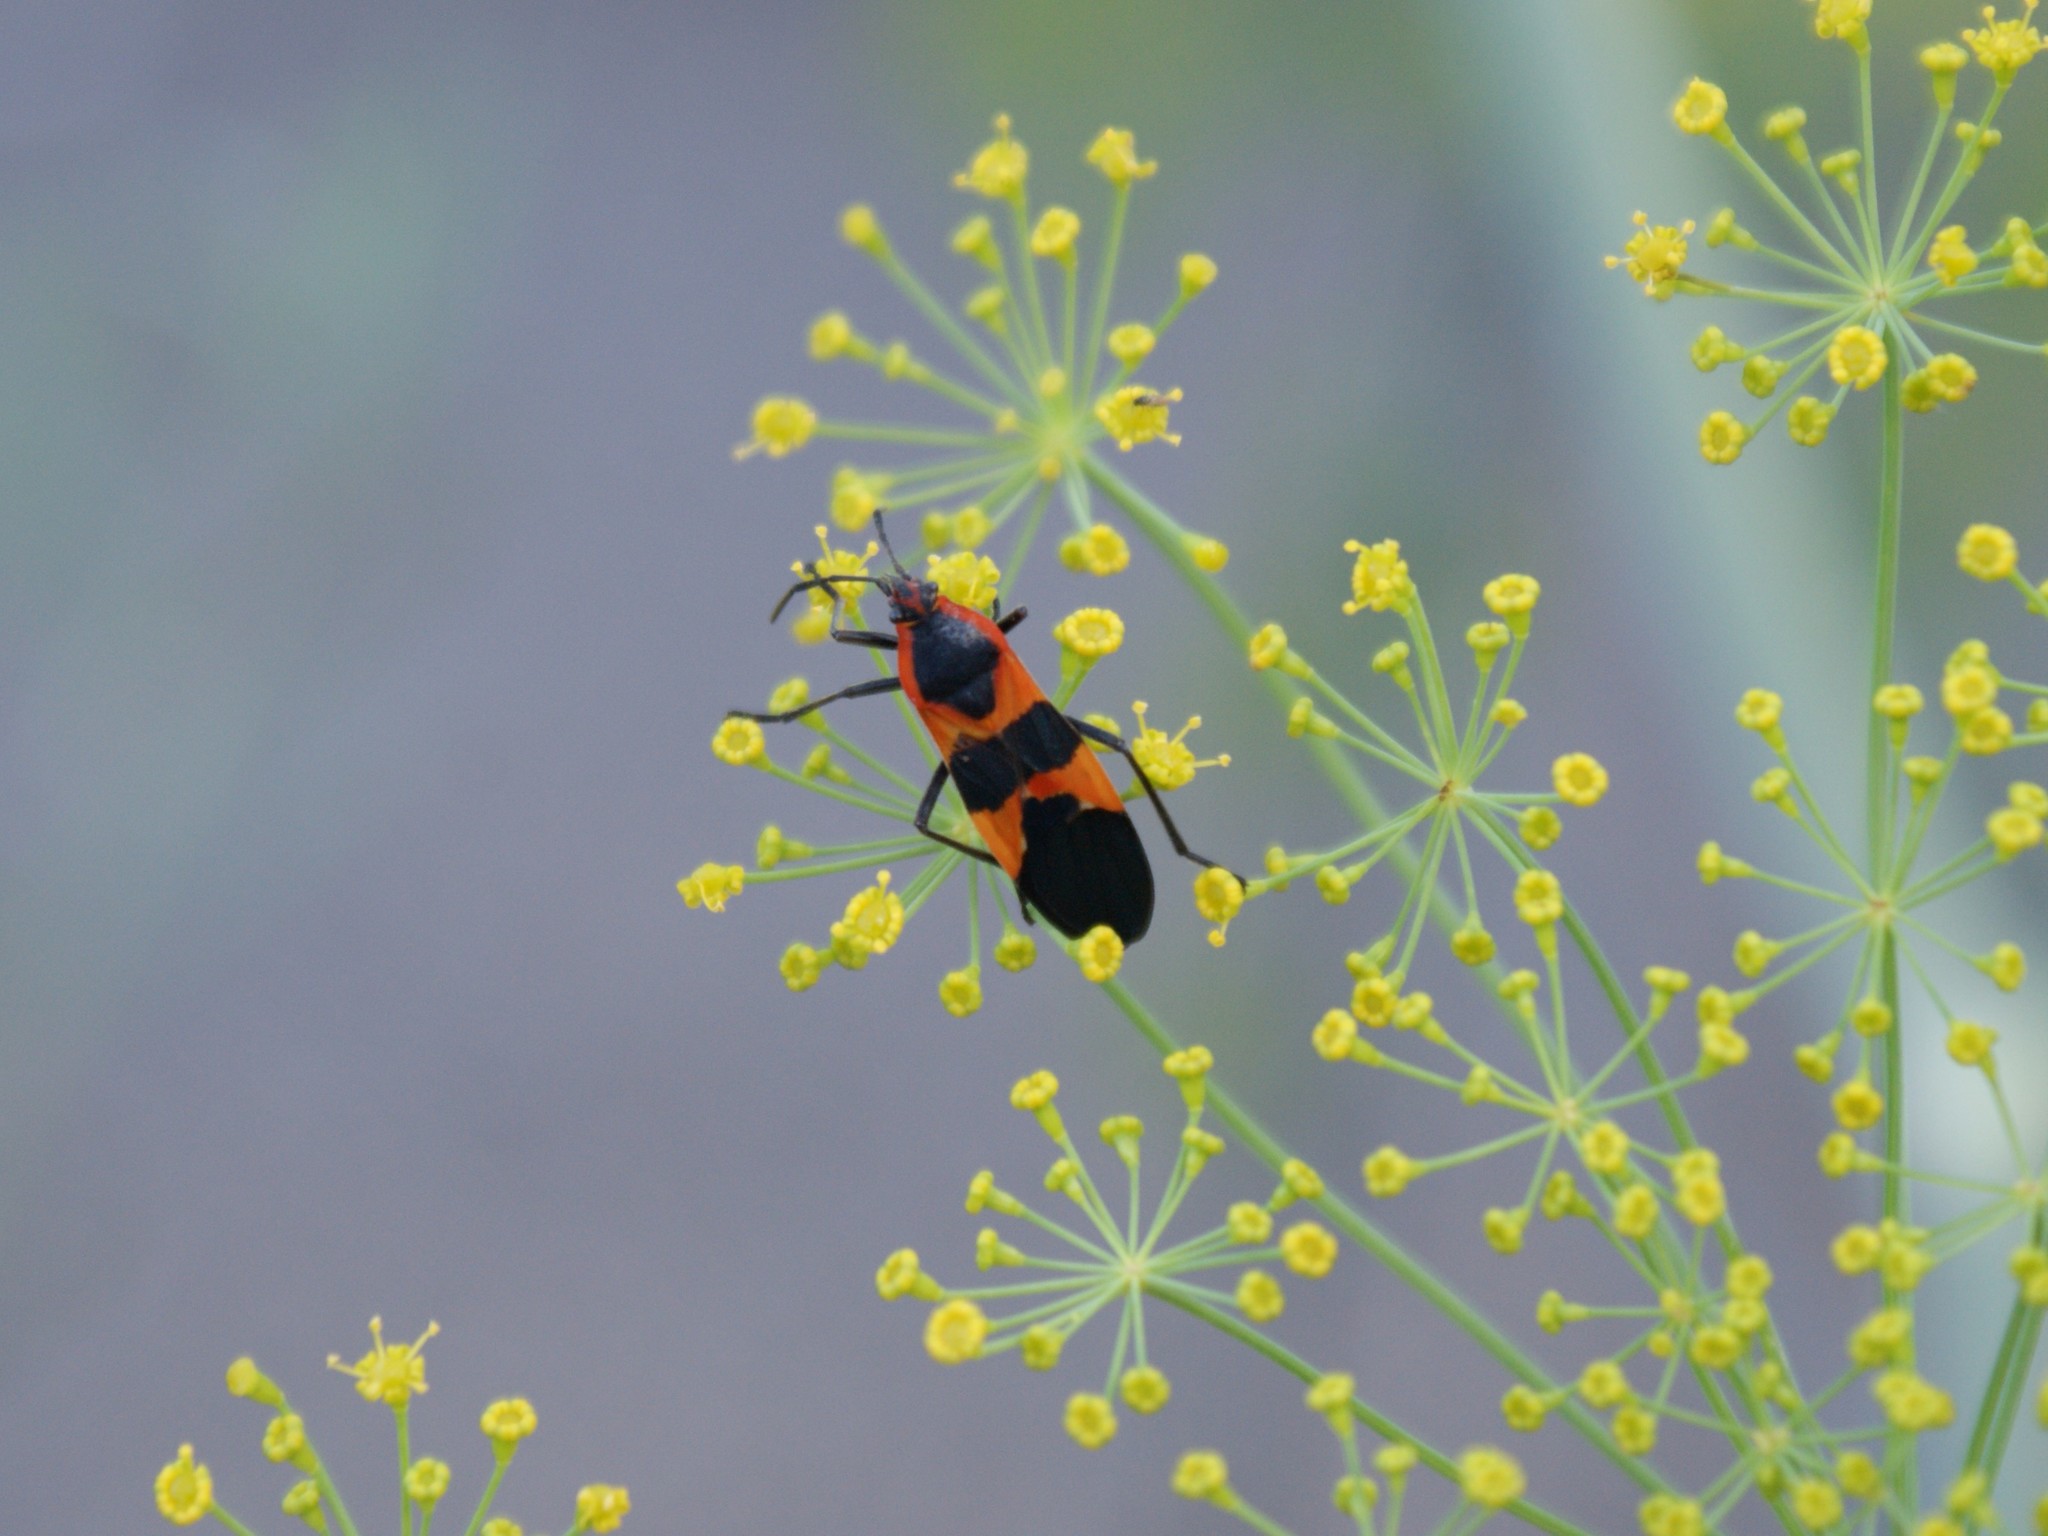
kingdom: Animalia
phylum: Arthropoda
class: Insecta
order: Hemiptera
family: Lygaeidae
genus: Oncopeltus
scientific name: Oncopeltus fasciatus
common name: Large milkweed bug
